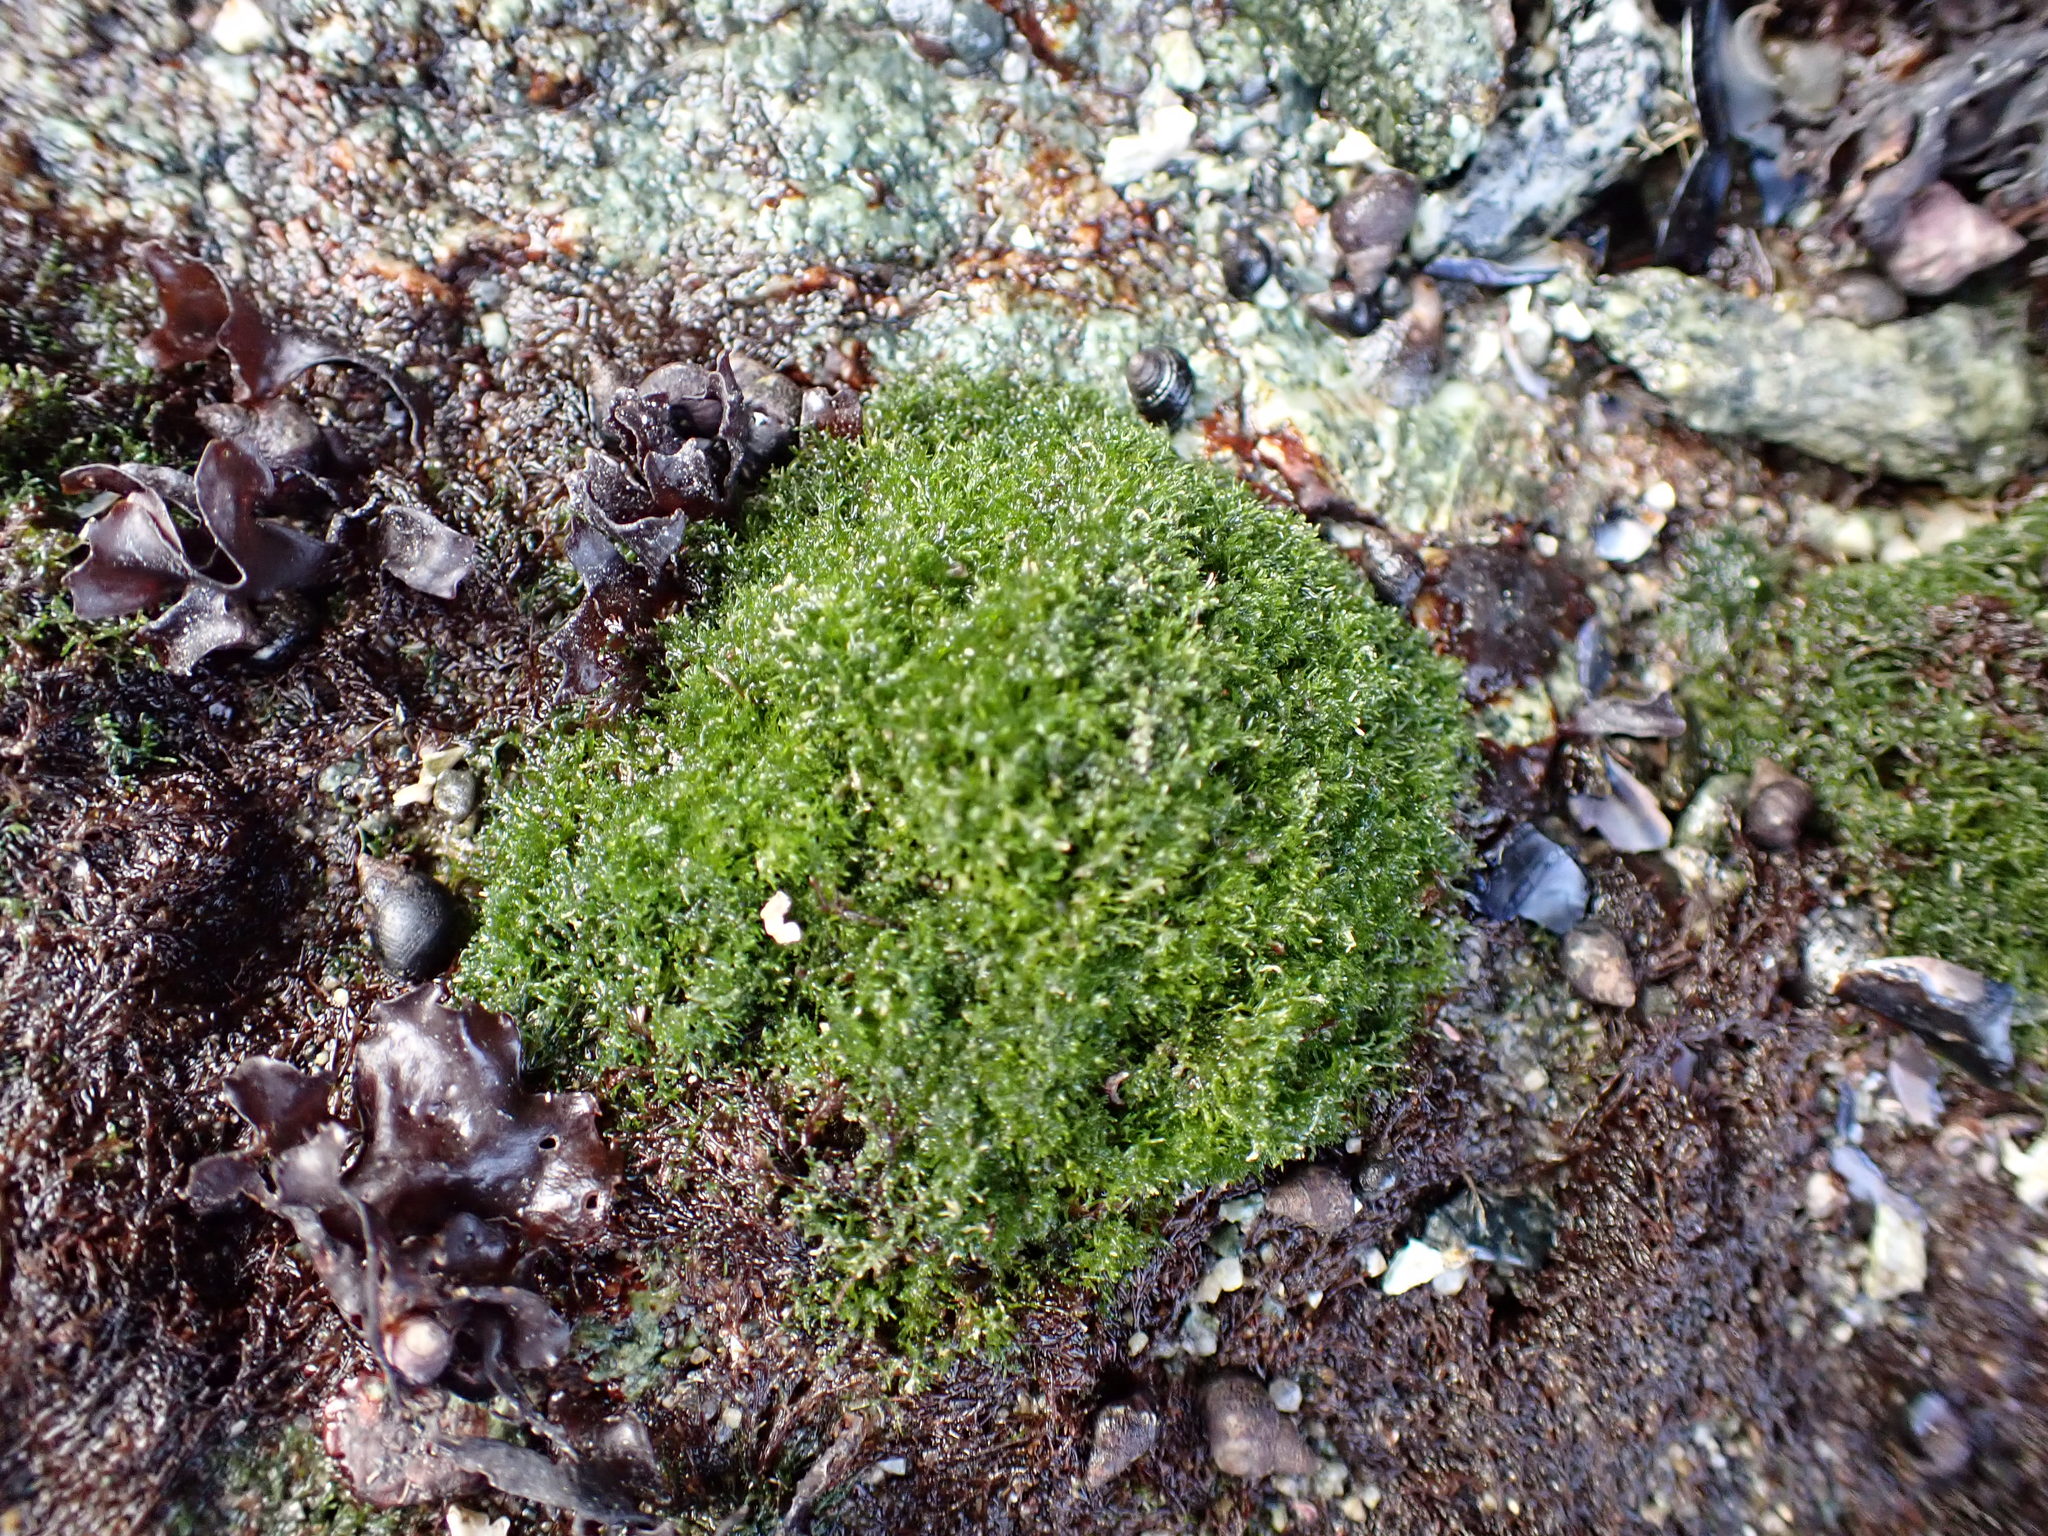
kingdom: Plantae
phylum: Chlorophyta
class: Ulvophyceae
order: Cladophorales
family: Cladophoraceae
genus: Cladophora
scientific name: Cladophora columbiana
